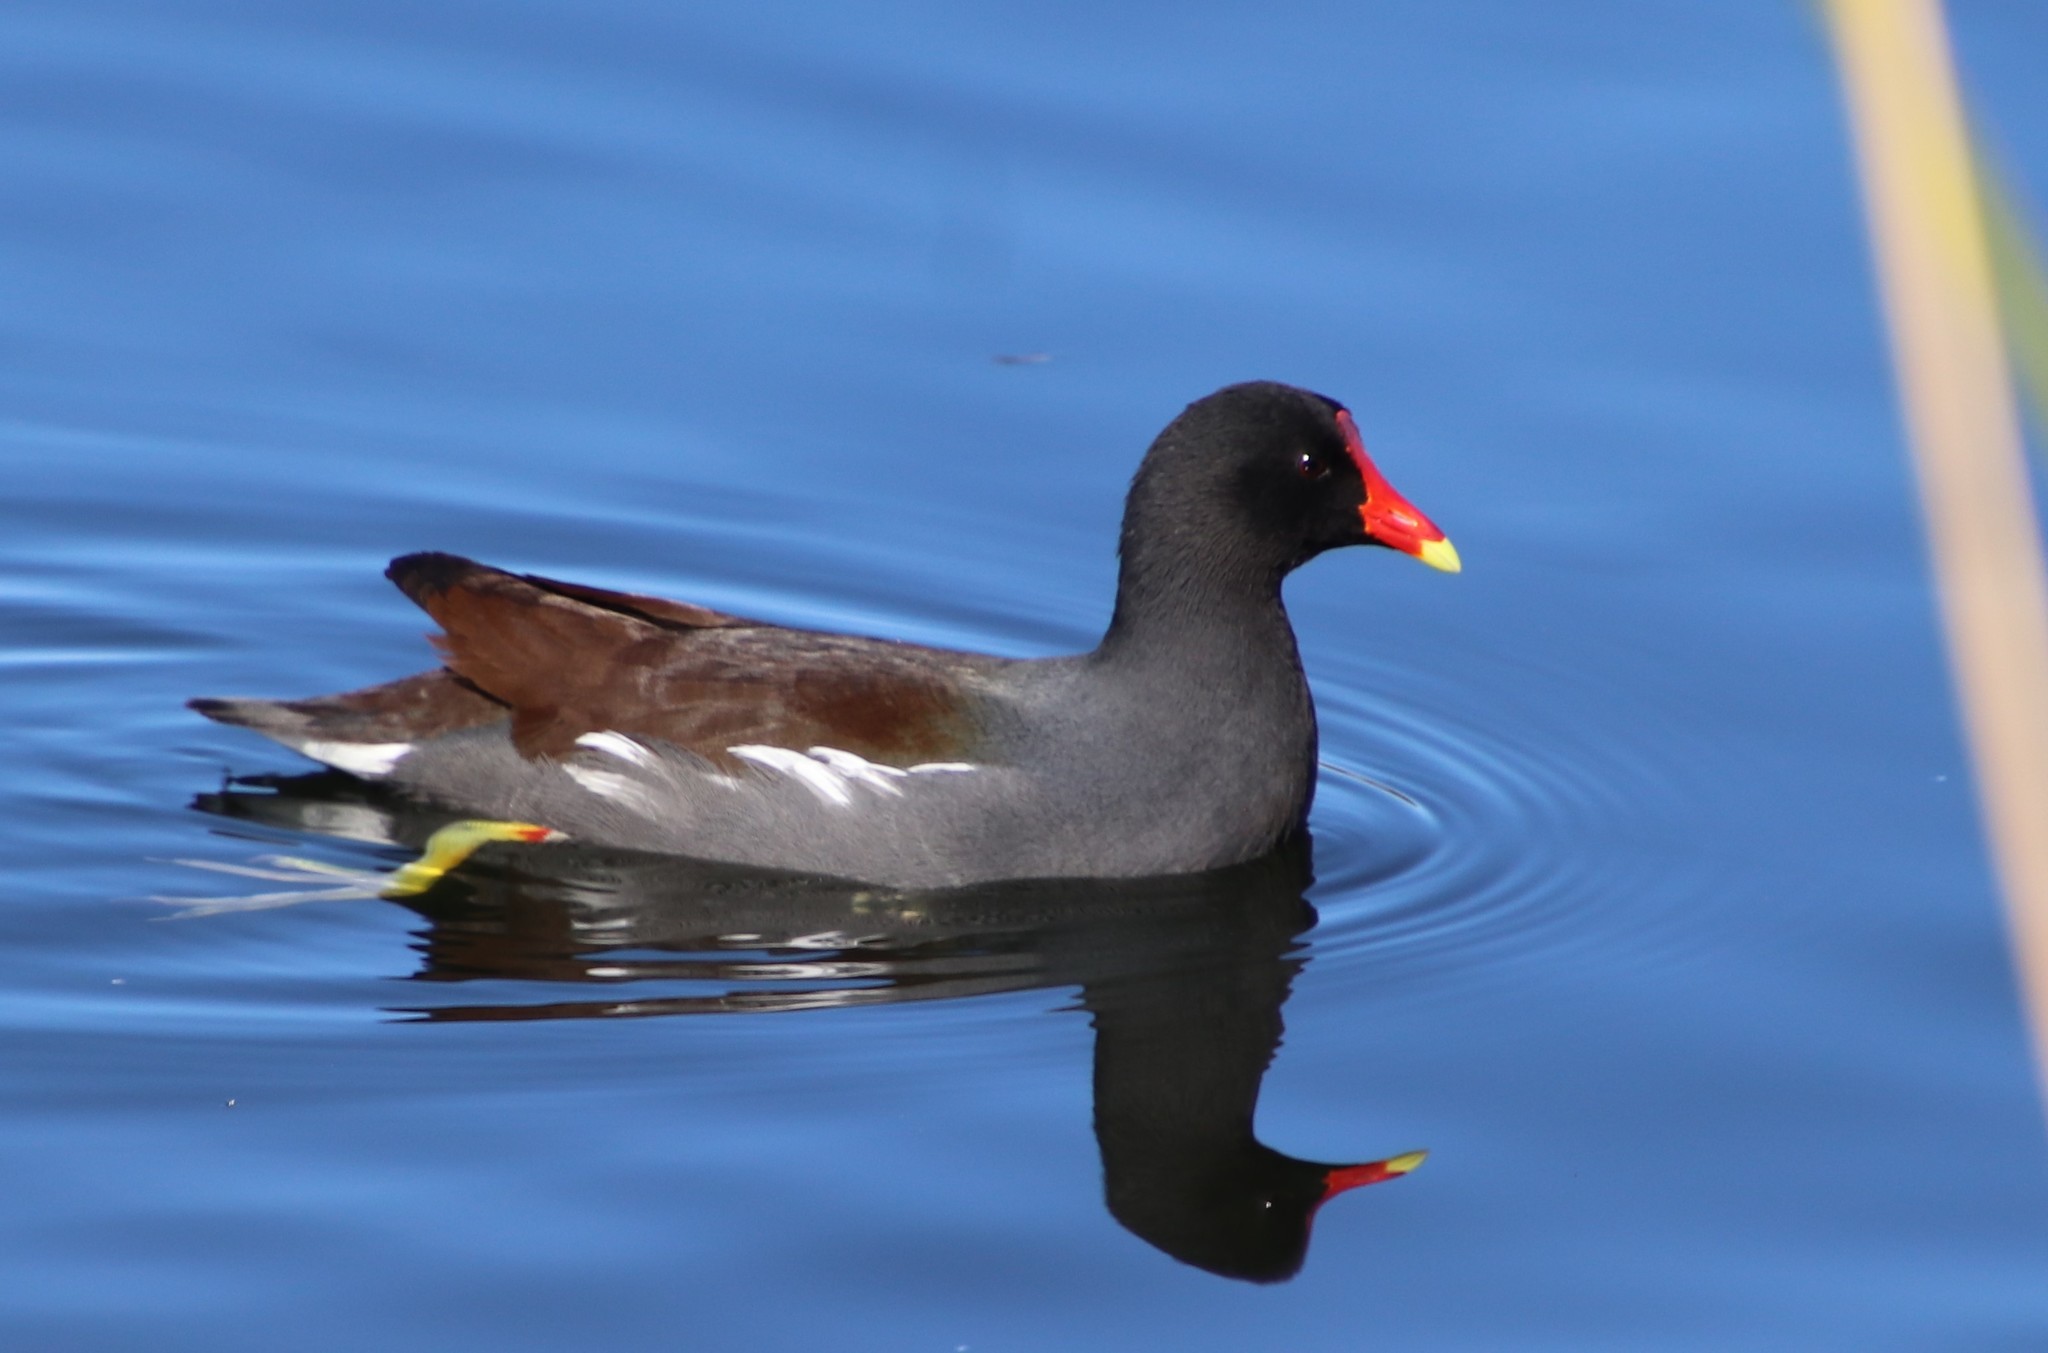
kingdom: Animalia
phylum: Chordata
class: Aves
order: Gruiformes
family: Rallidae
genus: Gallinula
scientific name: Gallinula chloropus
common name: Common moorhen
